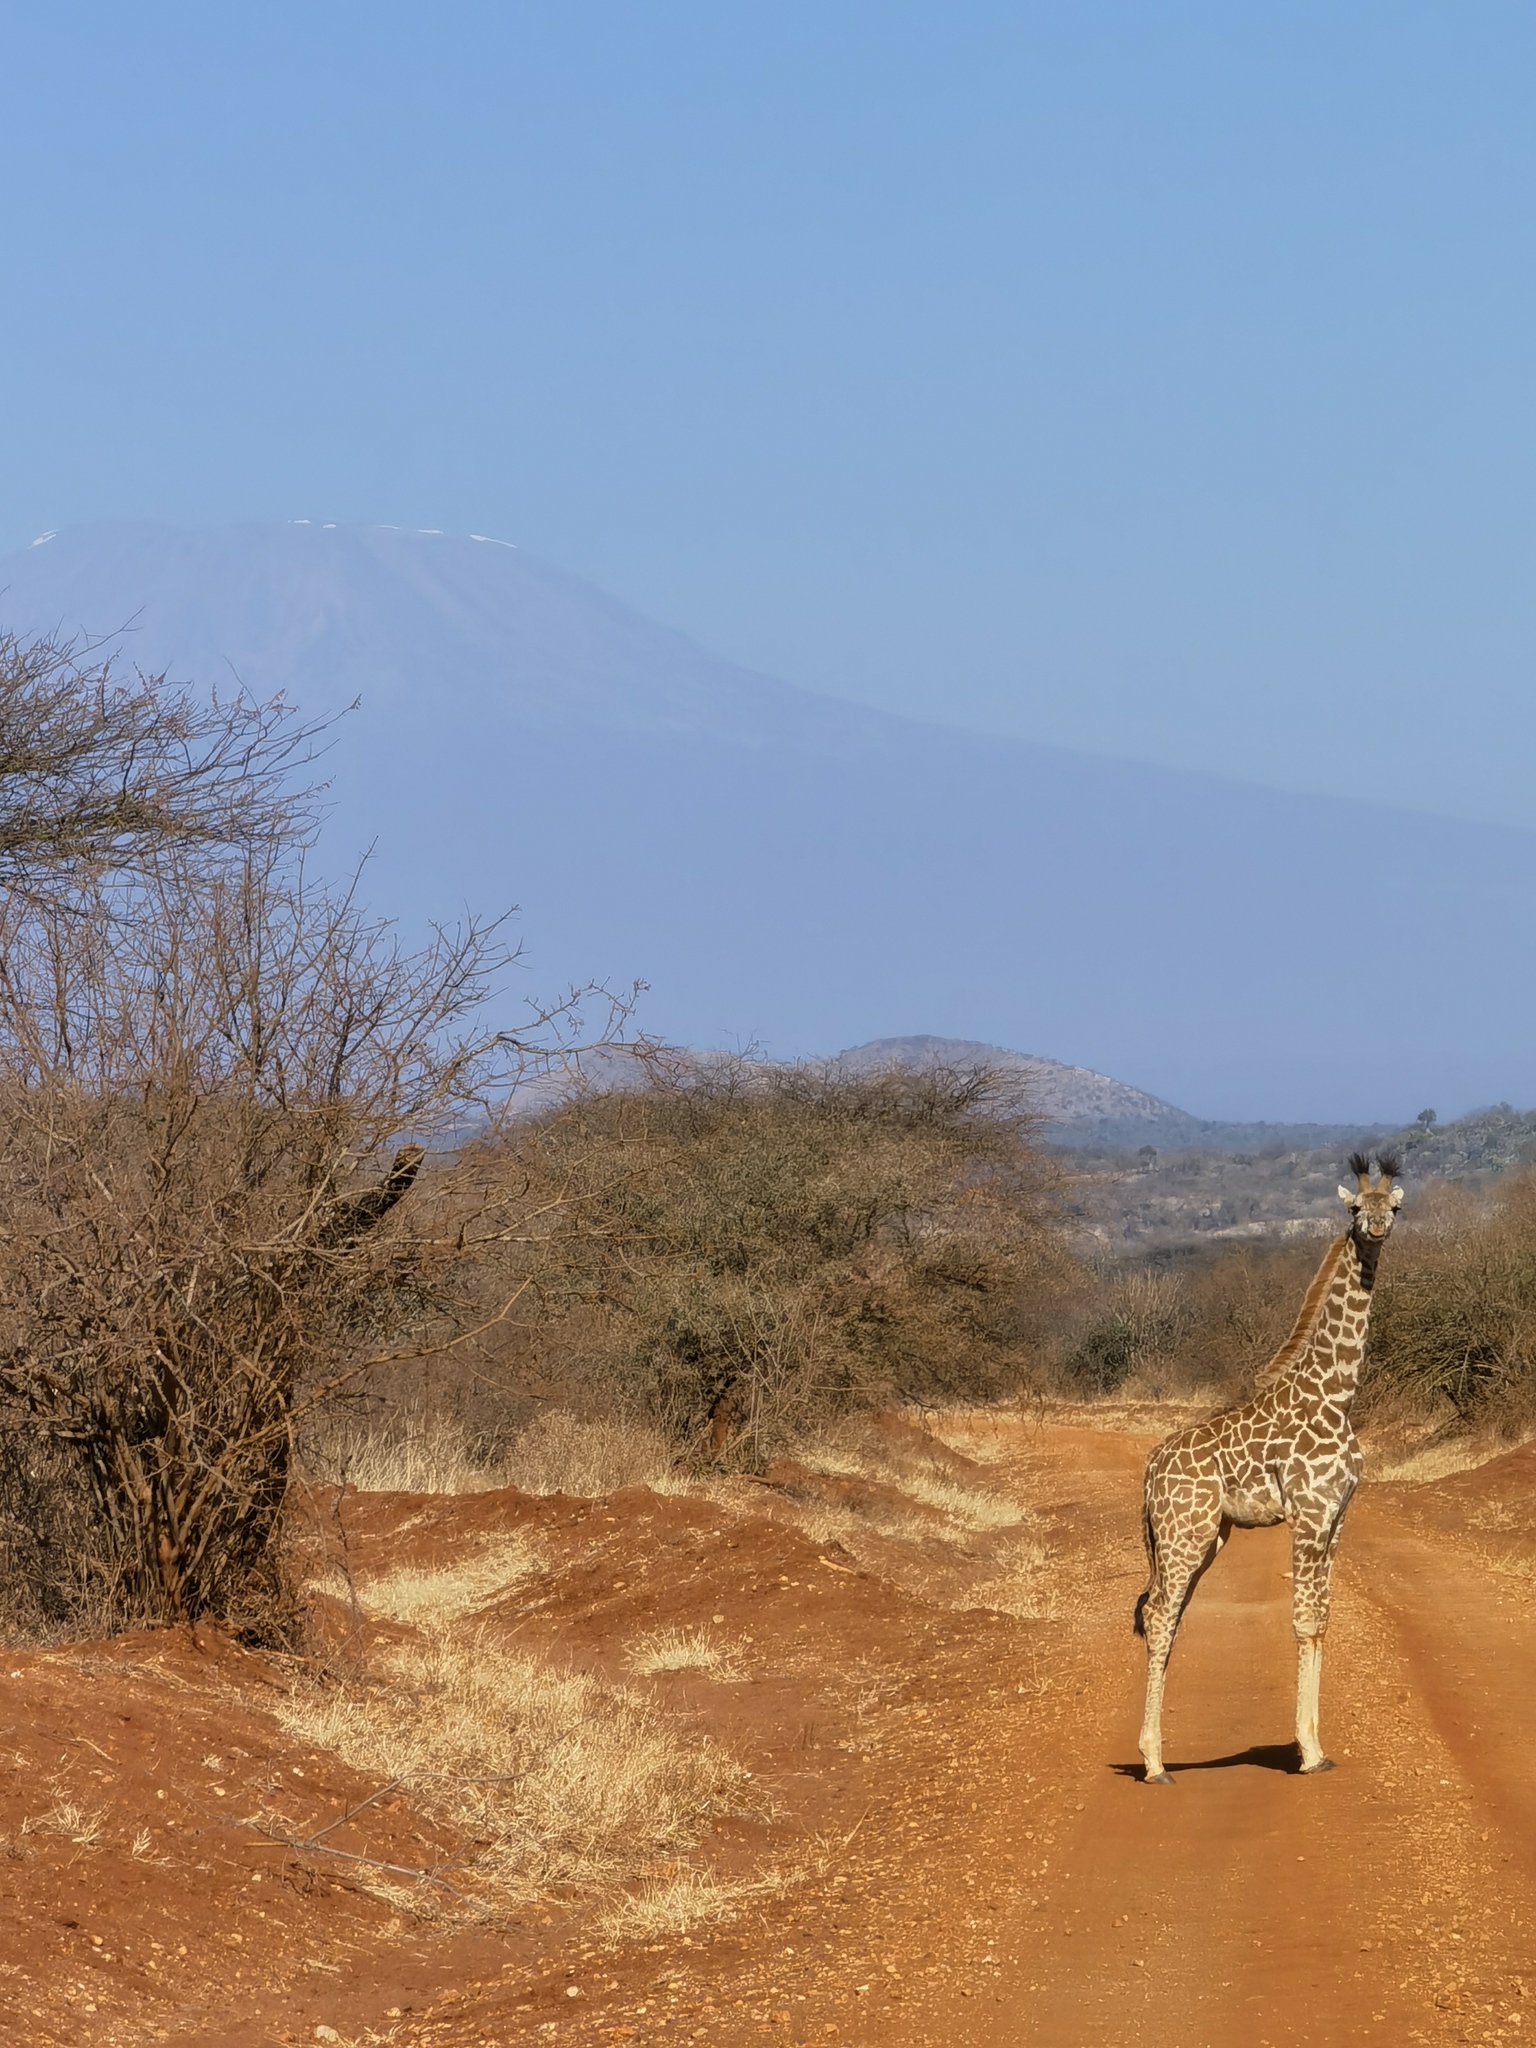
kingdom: Animalia
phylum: Chordata
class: Mammalia
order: Artiodactyla
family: Giraffidae
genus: Giraffa
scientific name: Giraffa tippelskirchi
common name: Masai giraffe
